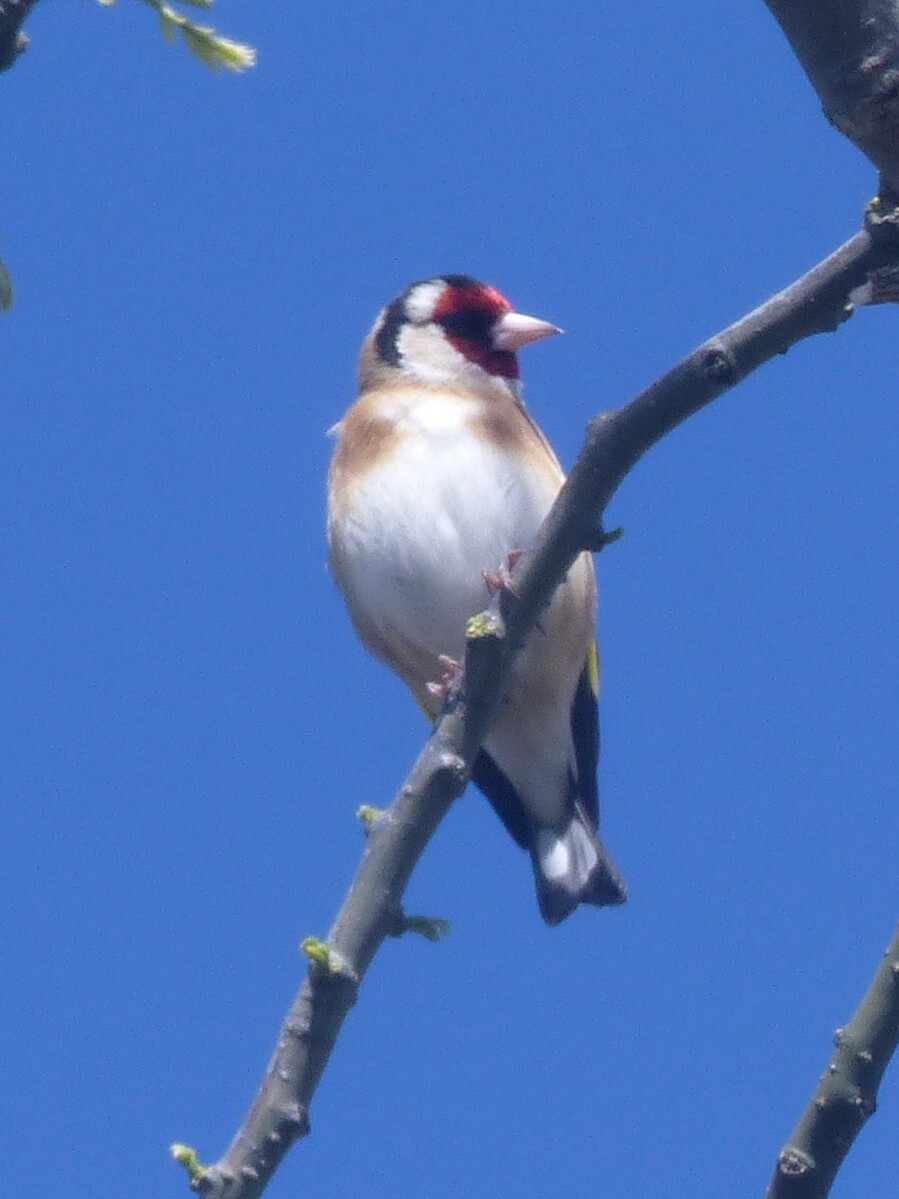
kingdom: Animalia
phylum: Chordata
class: Aves
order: Passeriformes
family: Fringillidae
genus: Carduelis
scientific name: Carduelis carduelis
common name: European goldfinch
